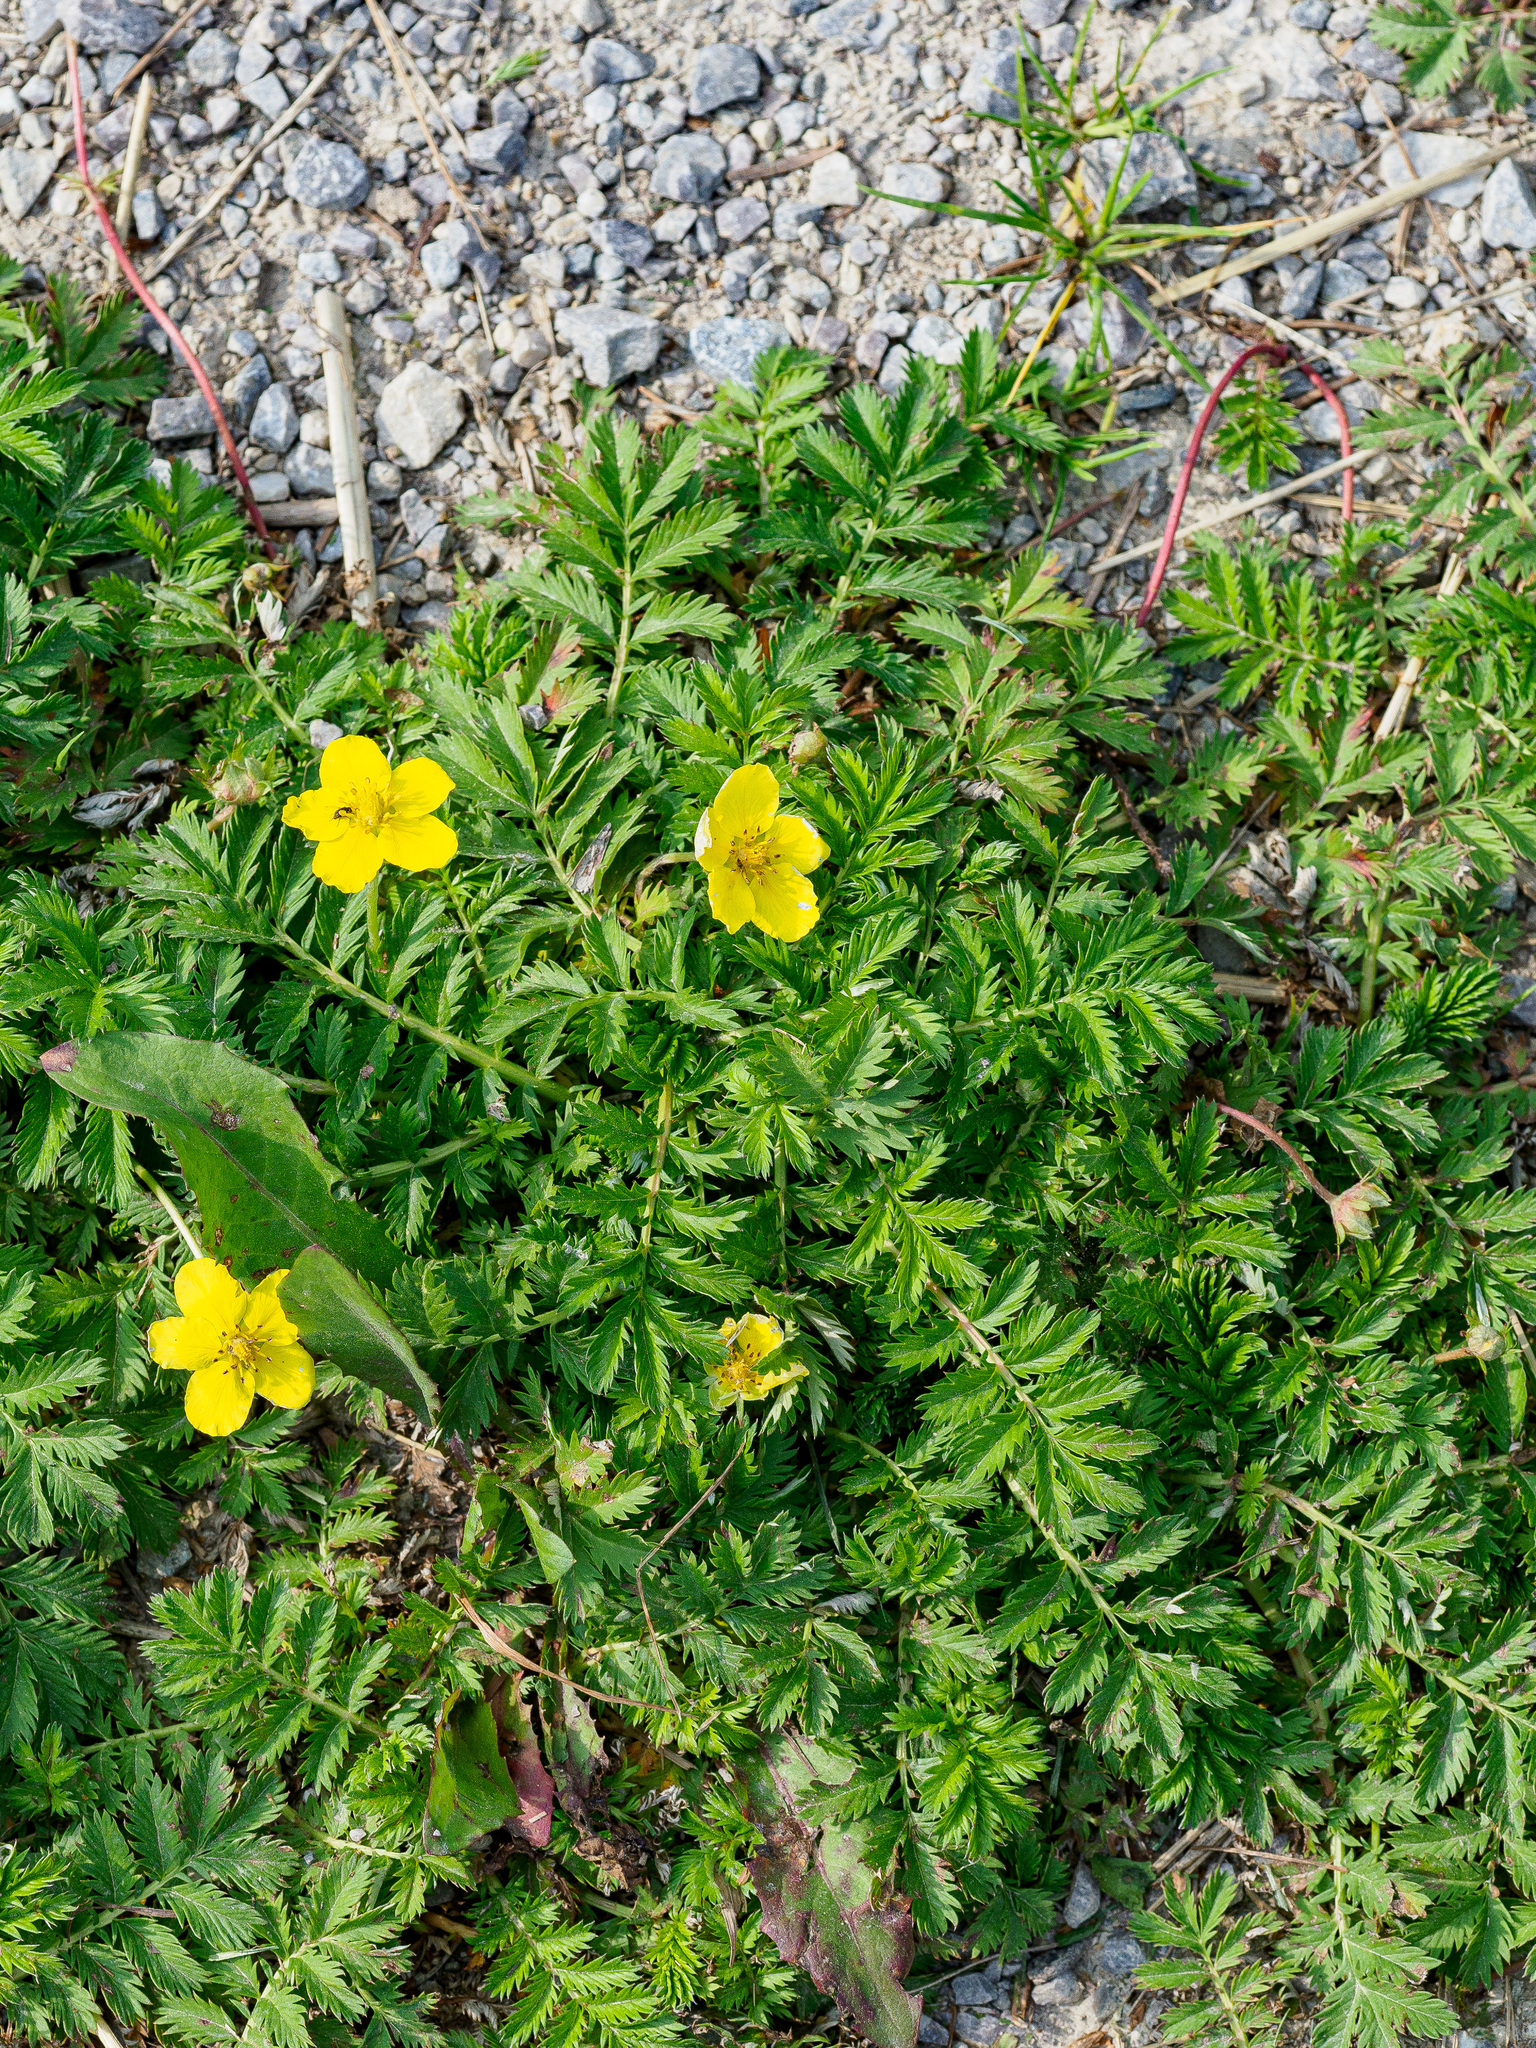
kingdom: Plantae
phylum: Tracheophyta
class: Magnoliopsida
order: Rosales
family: Rosaceae
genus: Argentina
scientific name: Argentina anserina
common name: Common silverweed
